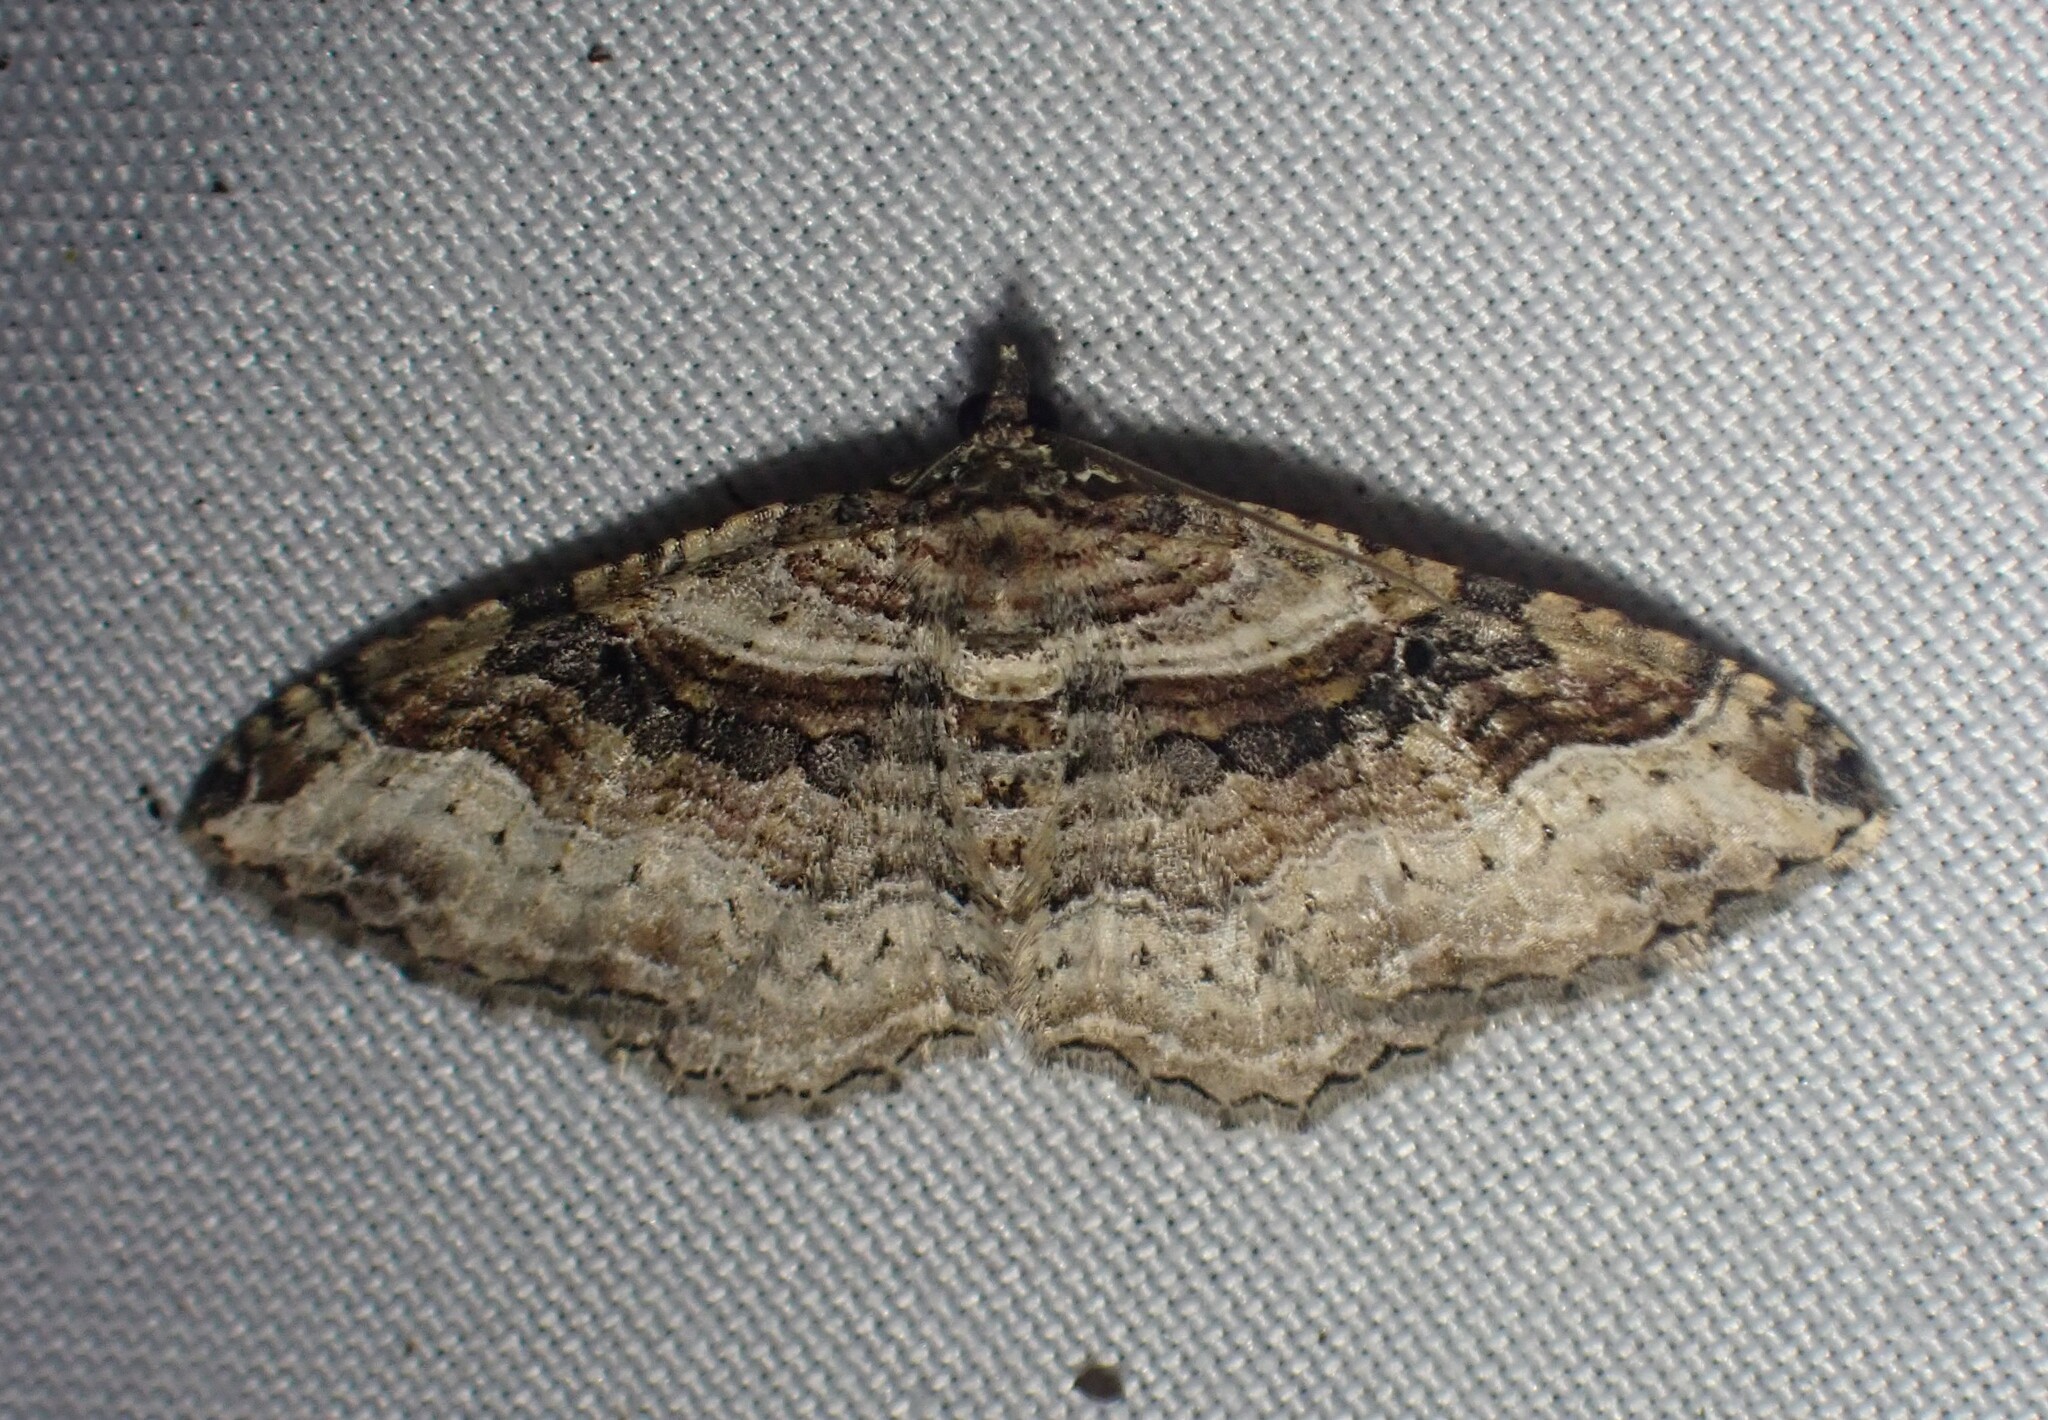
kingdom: Animalia
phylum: Arthropoda
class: Insecta
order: Lepidoptera
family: Geometridae
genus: Costaconvexa
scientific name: Costaconvexa centrostrigaria
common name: Bent-line carpet
